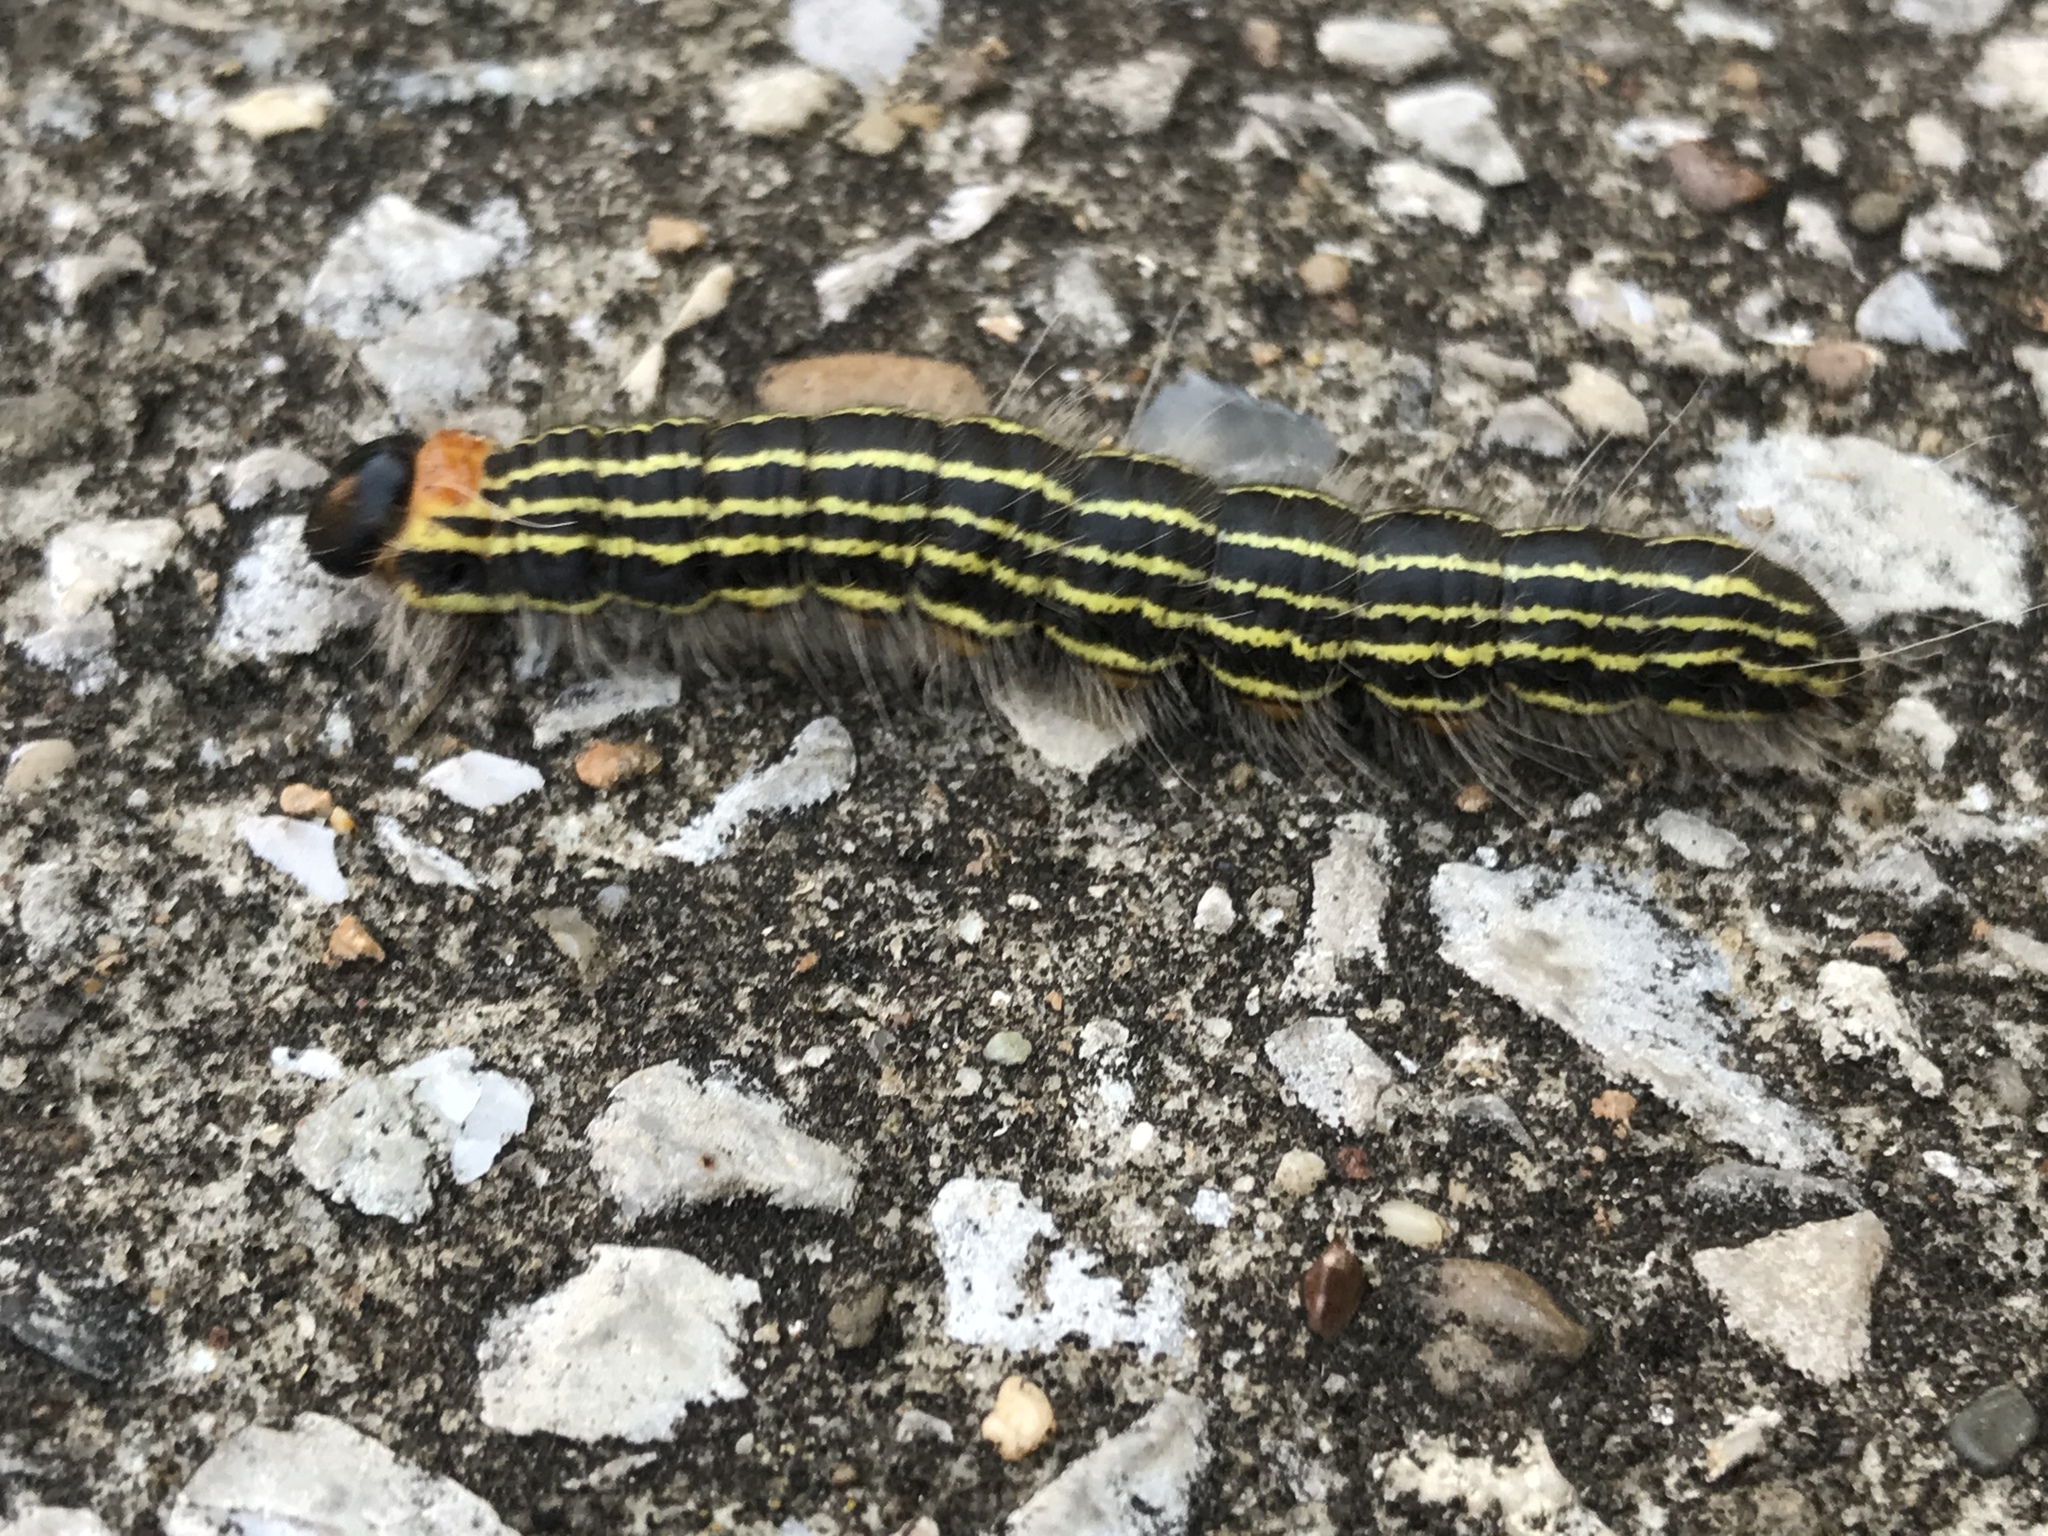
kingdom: Animalia
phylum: Arthropoda
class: Insecta
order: Lepidoptera
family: Notodontidae
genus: Datana
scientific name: Datana ministra
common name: Yellow-necked caterpillar moth
